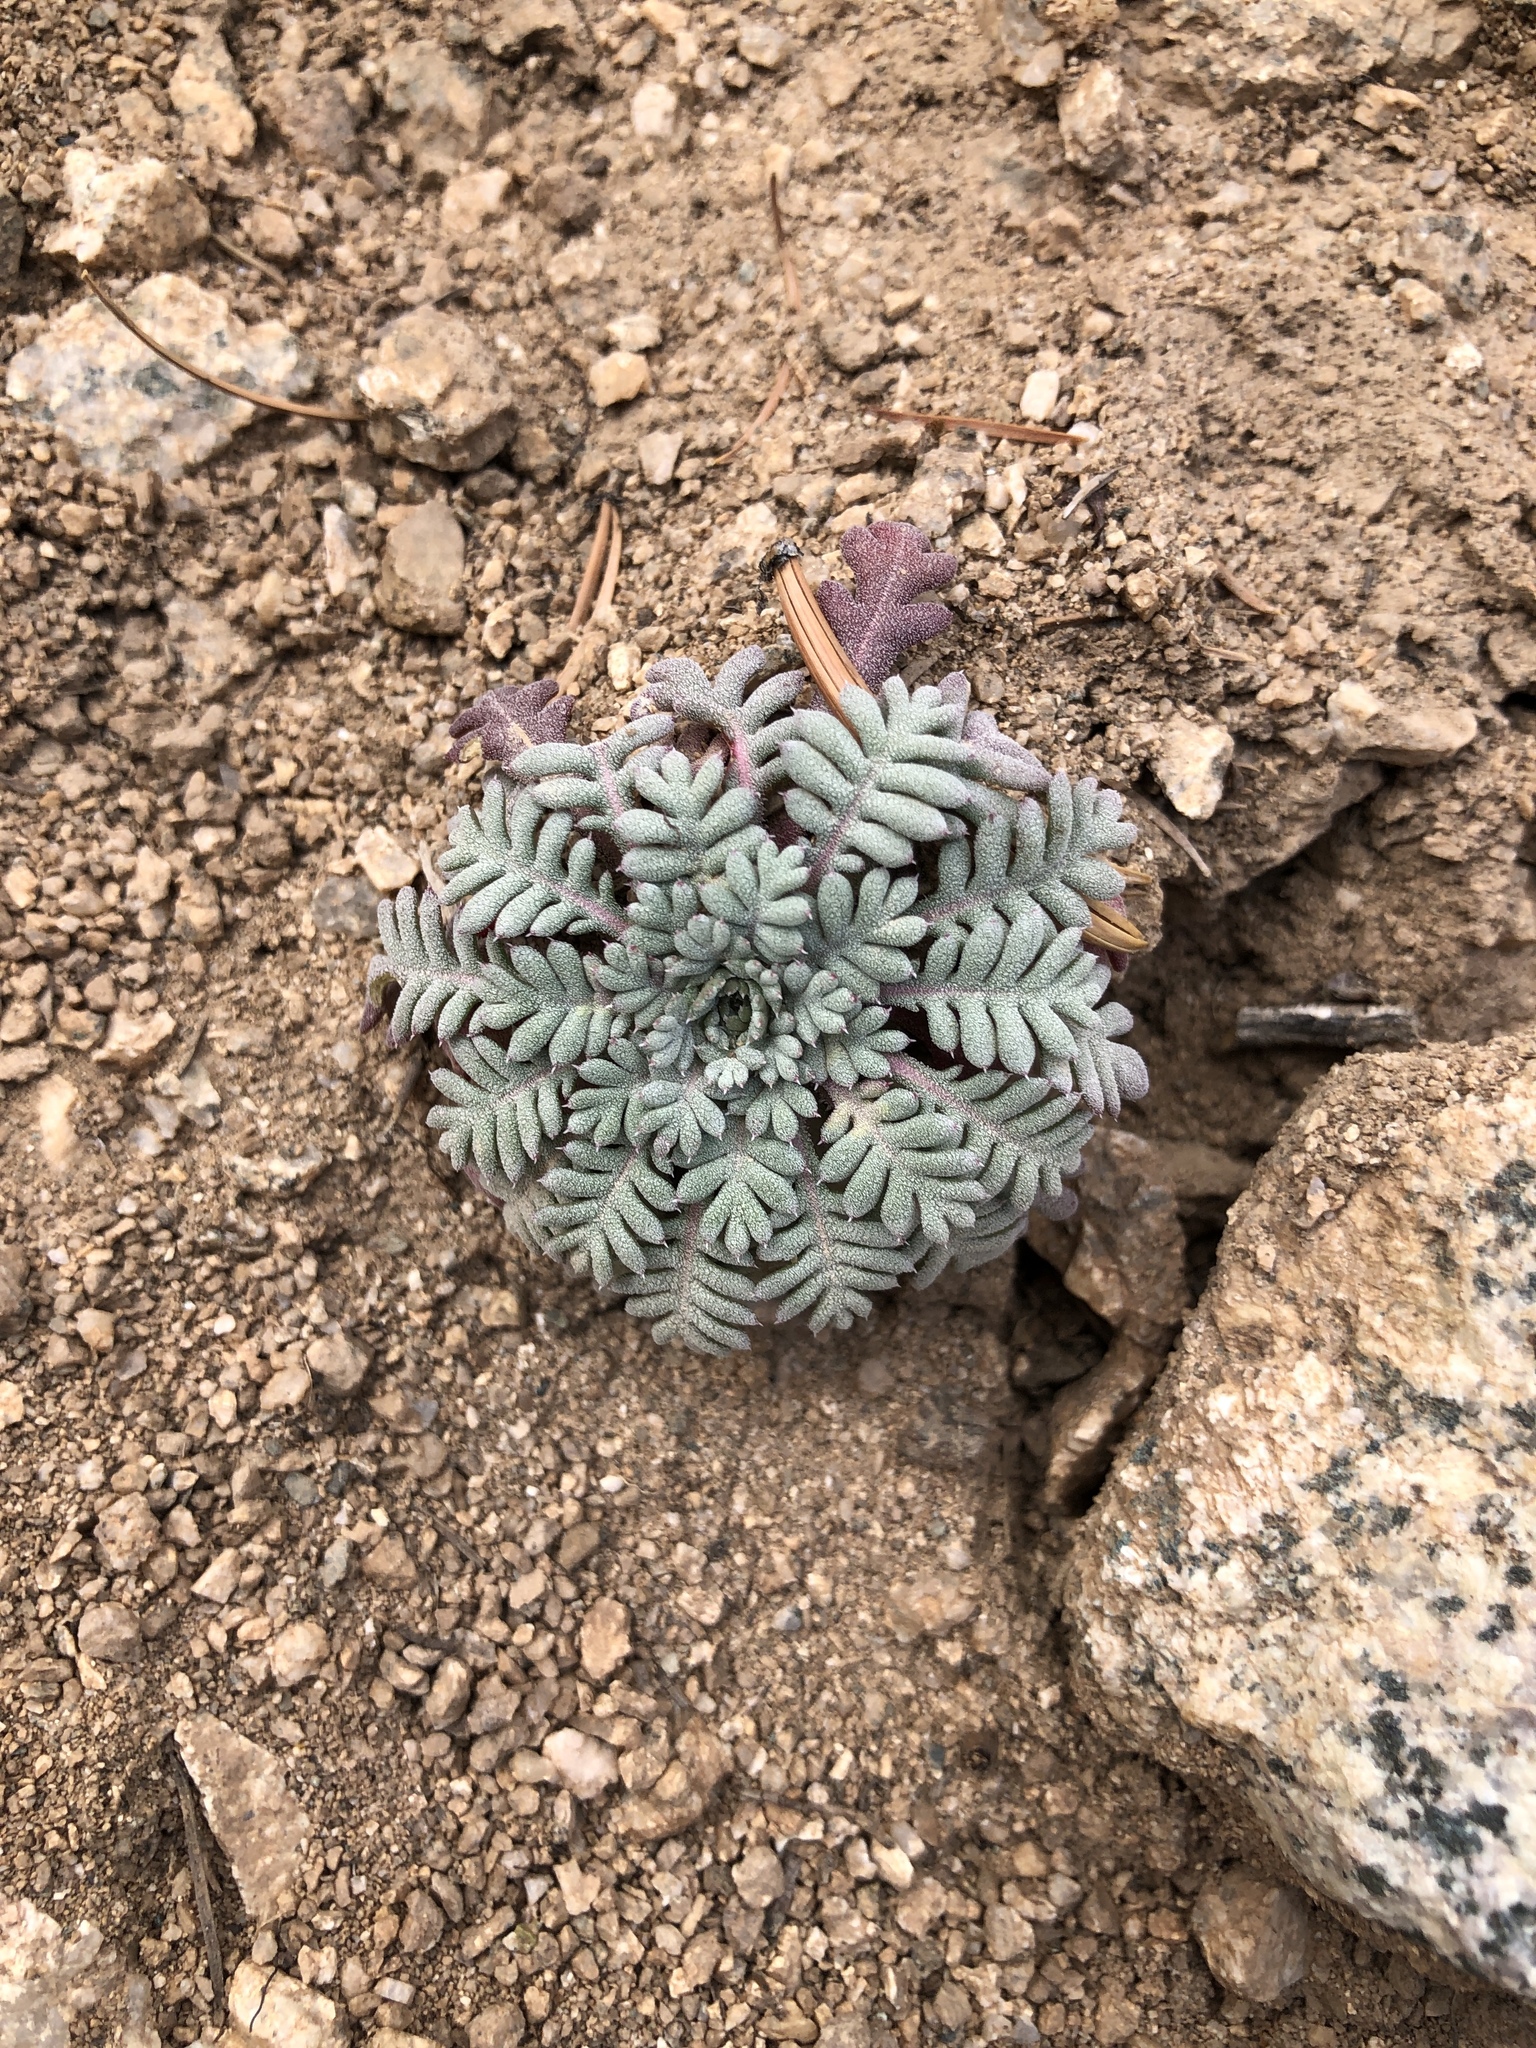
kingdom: Plantae
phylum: Tracheophyta
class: Magnoliopsida
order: Ericales
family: Polemoniaceae
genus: Aliciella
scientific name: Aliciella pinnatifida
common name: Sticky gilia
